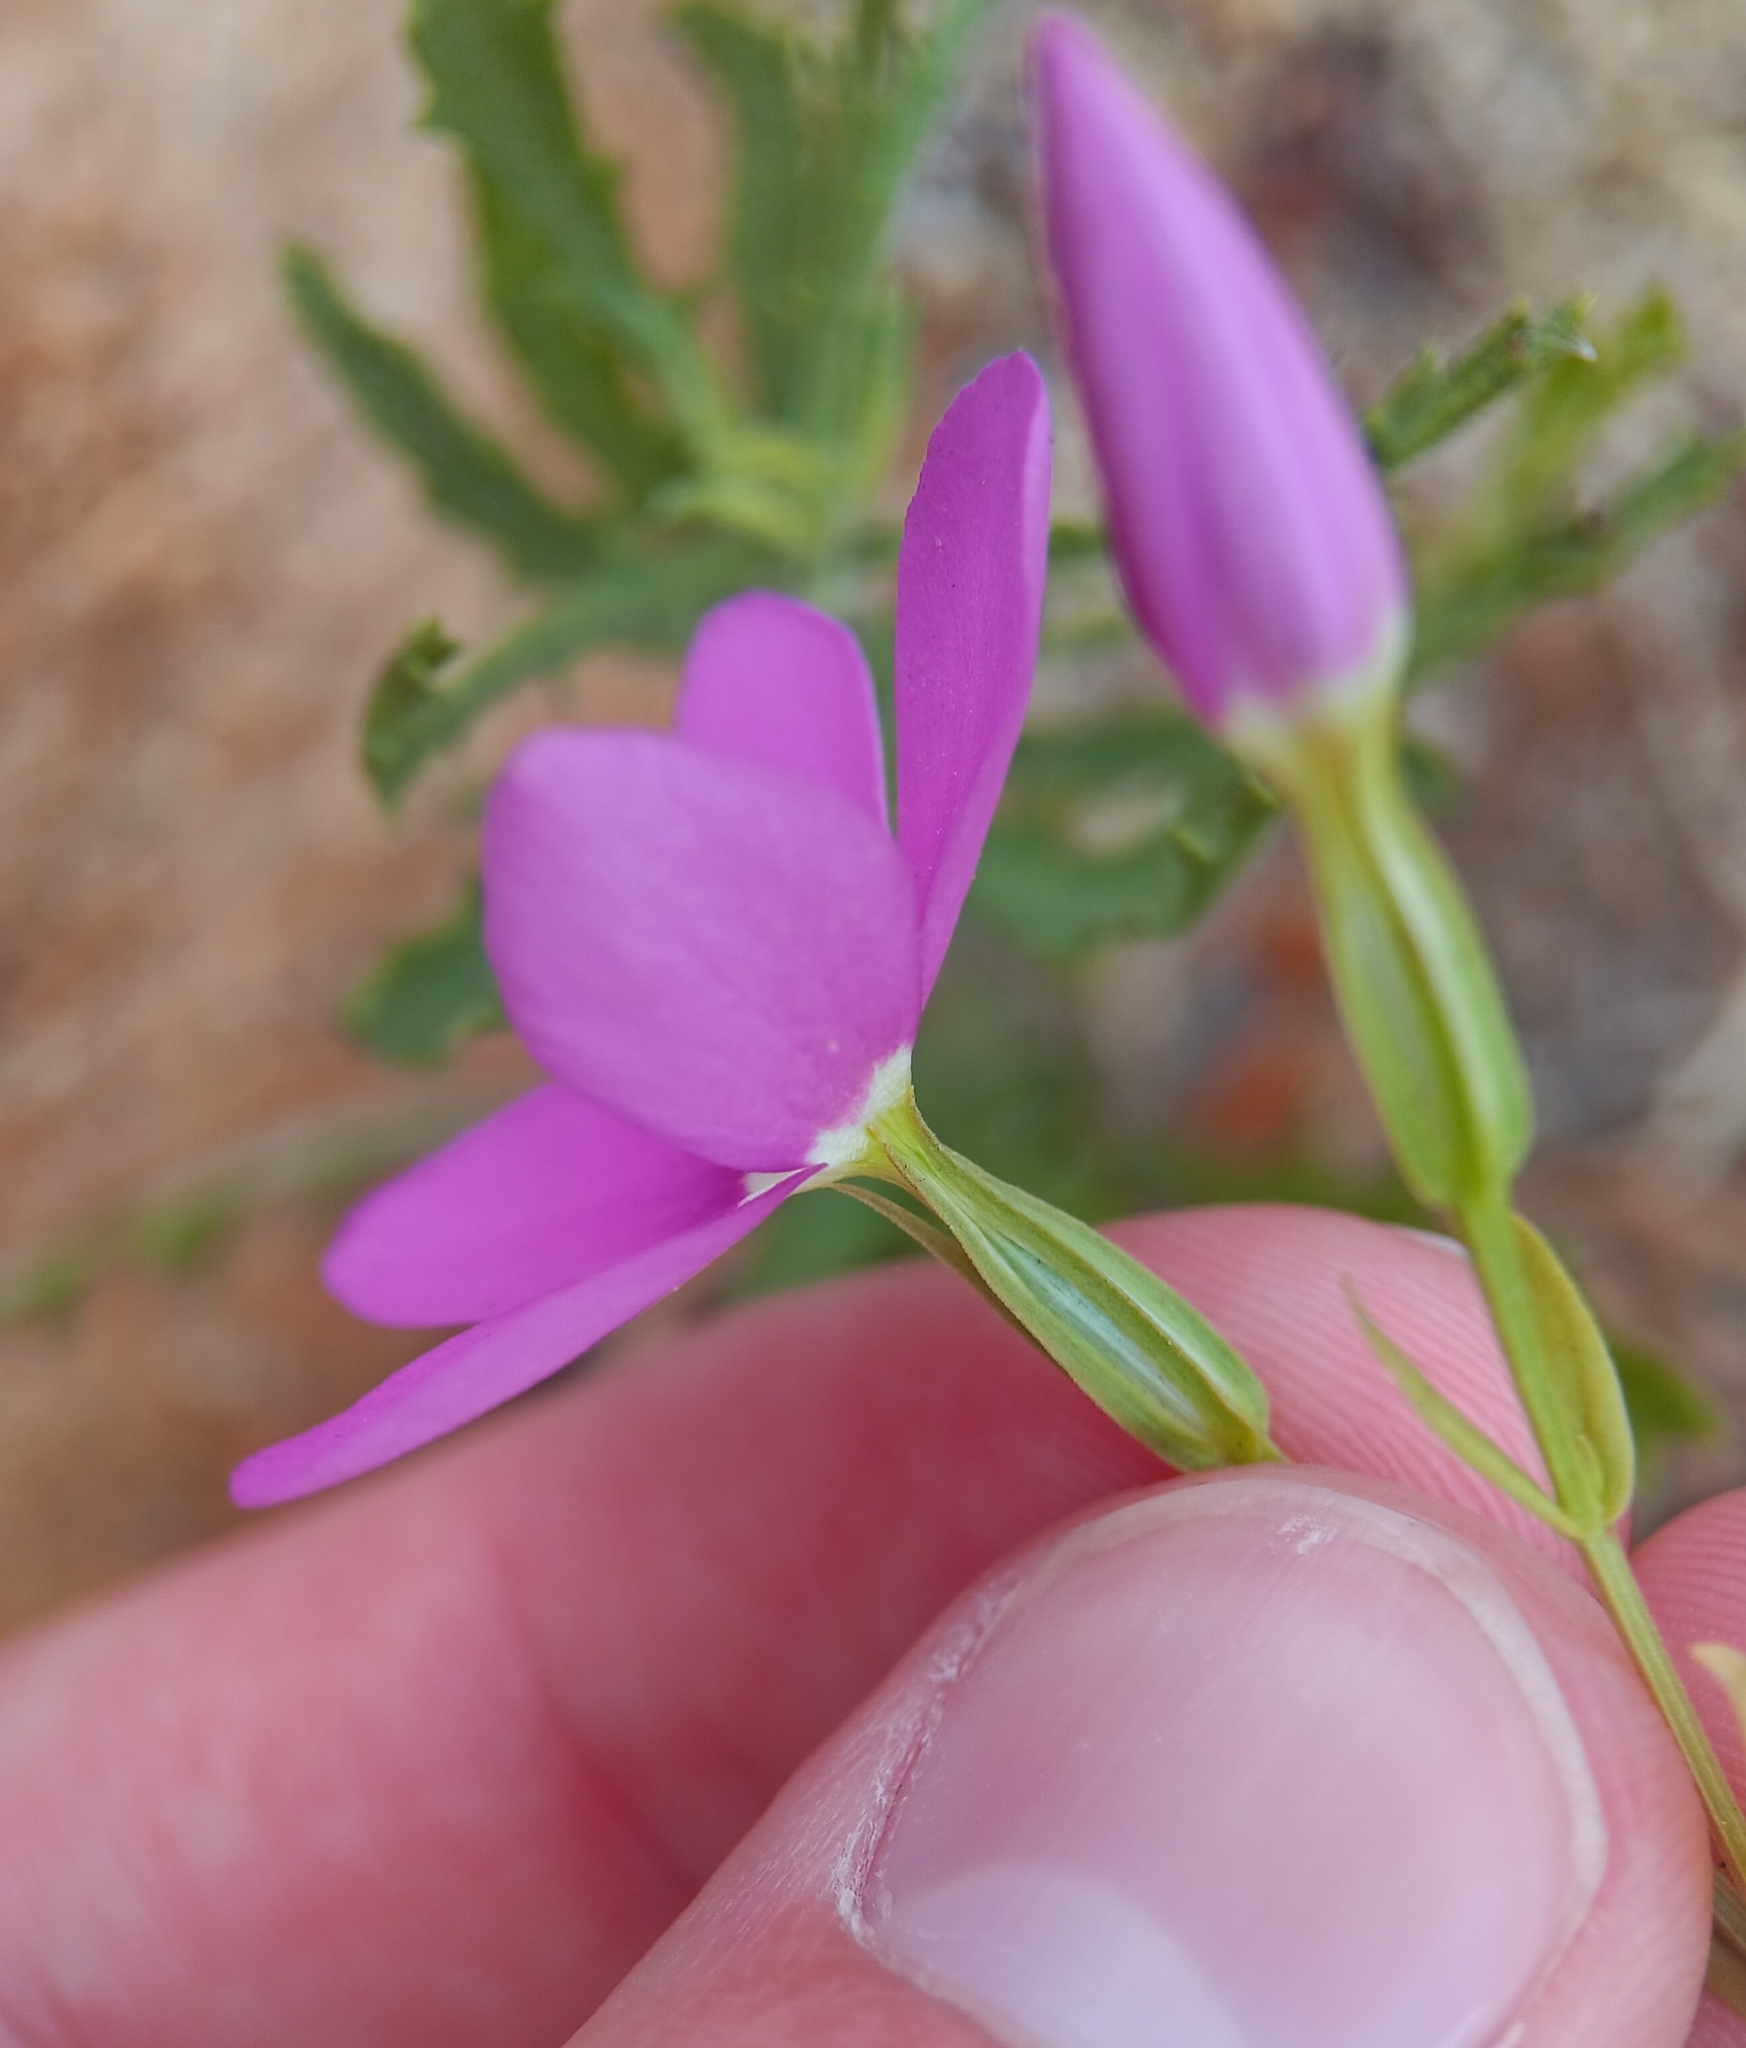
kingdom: Plantae
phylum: Tracheophyta
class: Magnoliopsida
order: Gentianales
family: Gentianaceae
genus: Zeltnera
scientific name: Zeltnera venusta
